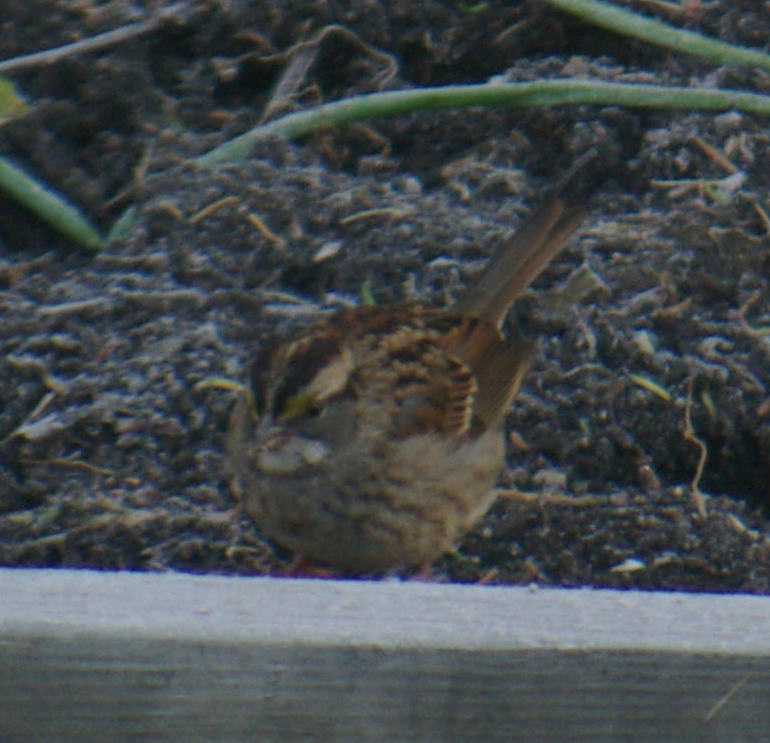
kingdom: Animalia
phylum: Chordata
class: Aves
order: Passeriformes
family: Passerellidae
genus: Zonotrichia
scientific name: Zonotrichia albicollis
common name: White-throated sparrow
